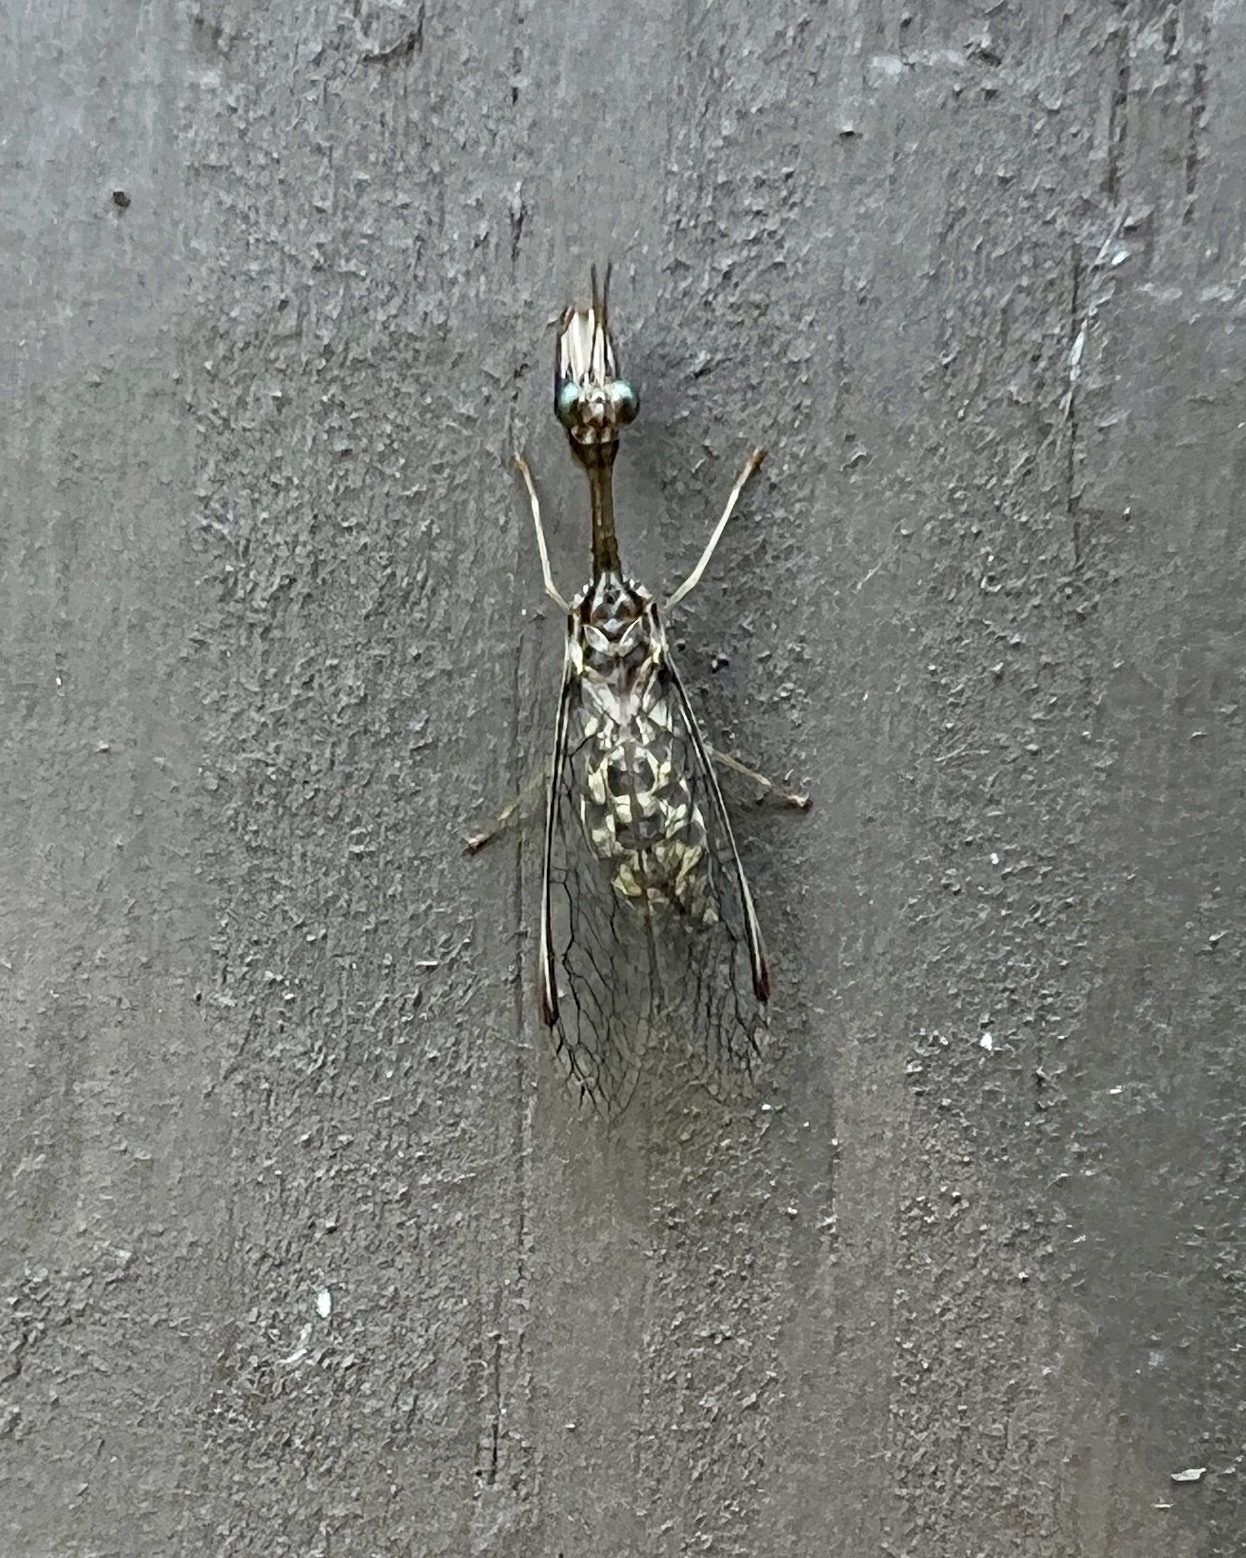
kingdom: Animalia
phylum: Arthropoda
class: Insecta
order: Neuroptera
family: Mantispidae
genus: Dicromantispa
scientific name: Dicromantispa sayi
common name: Say's mantidfly
